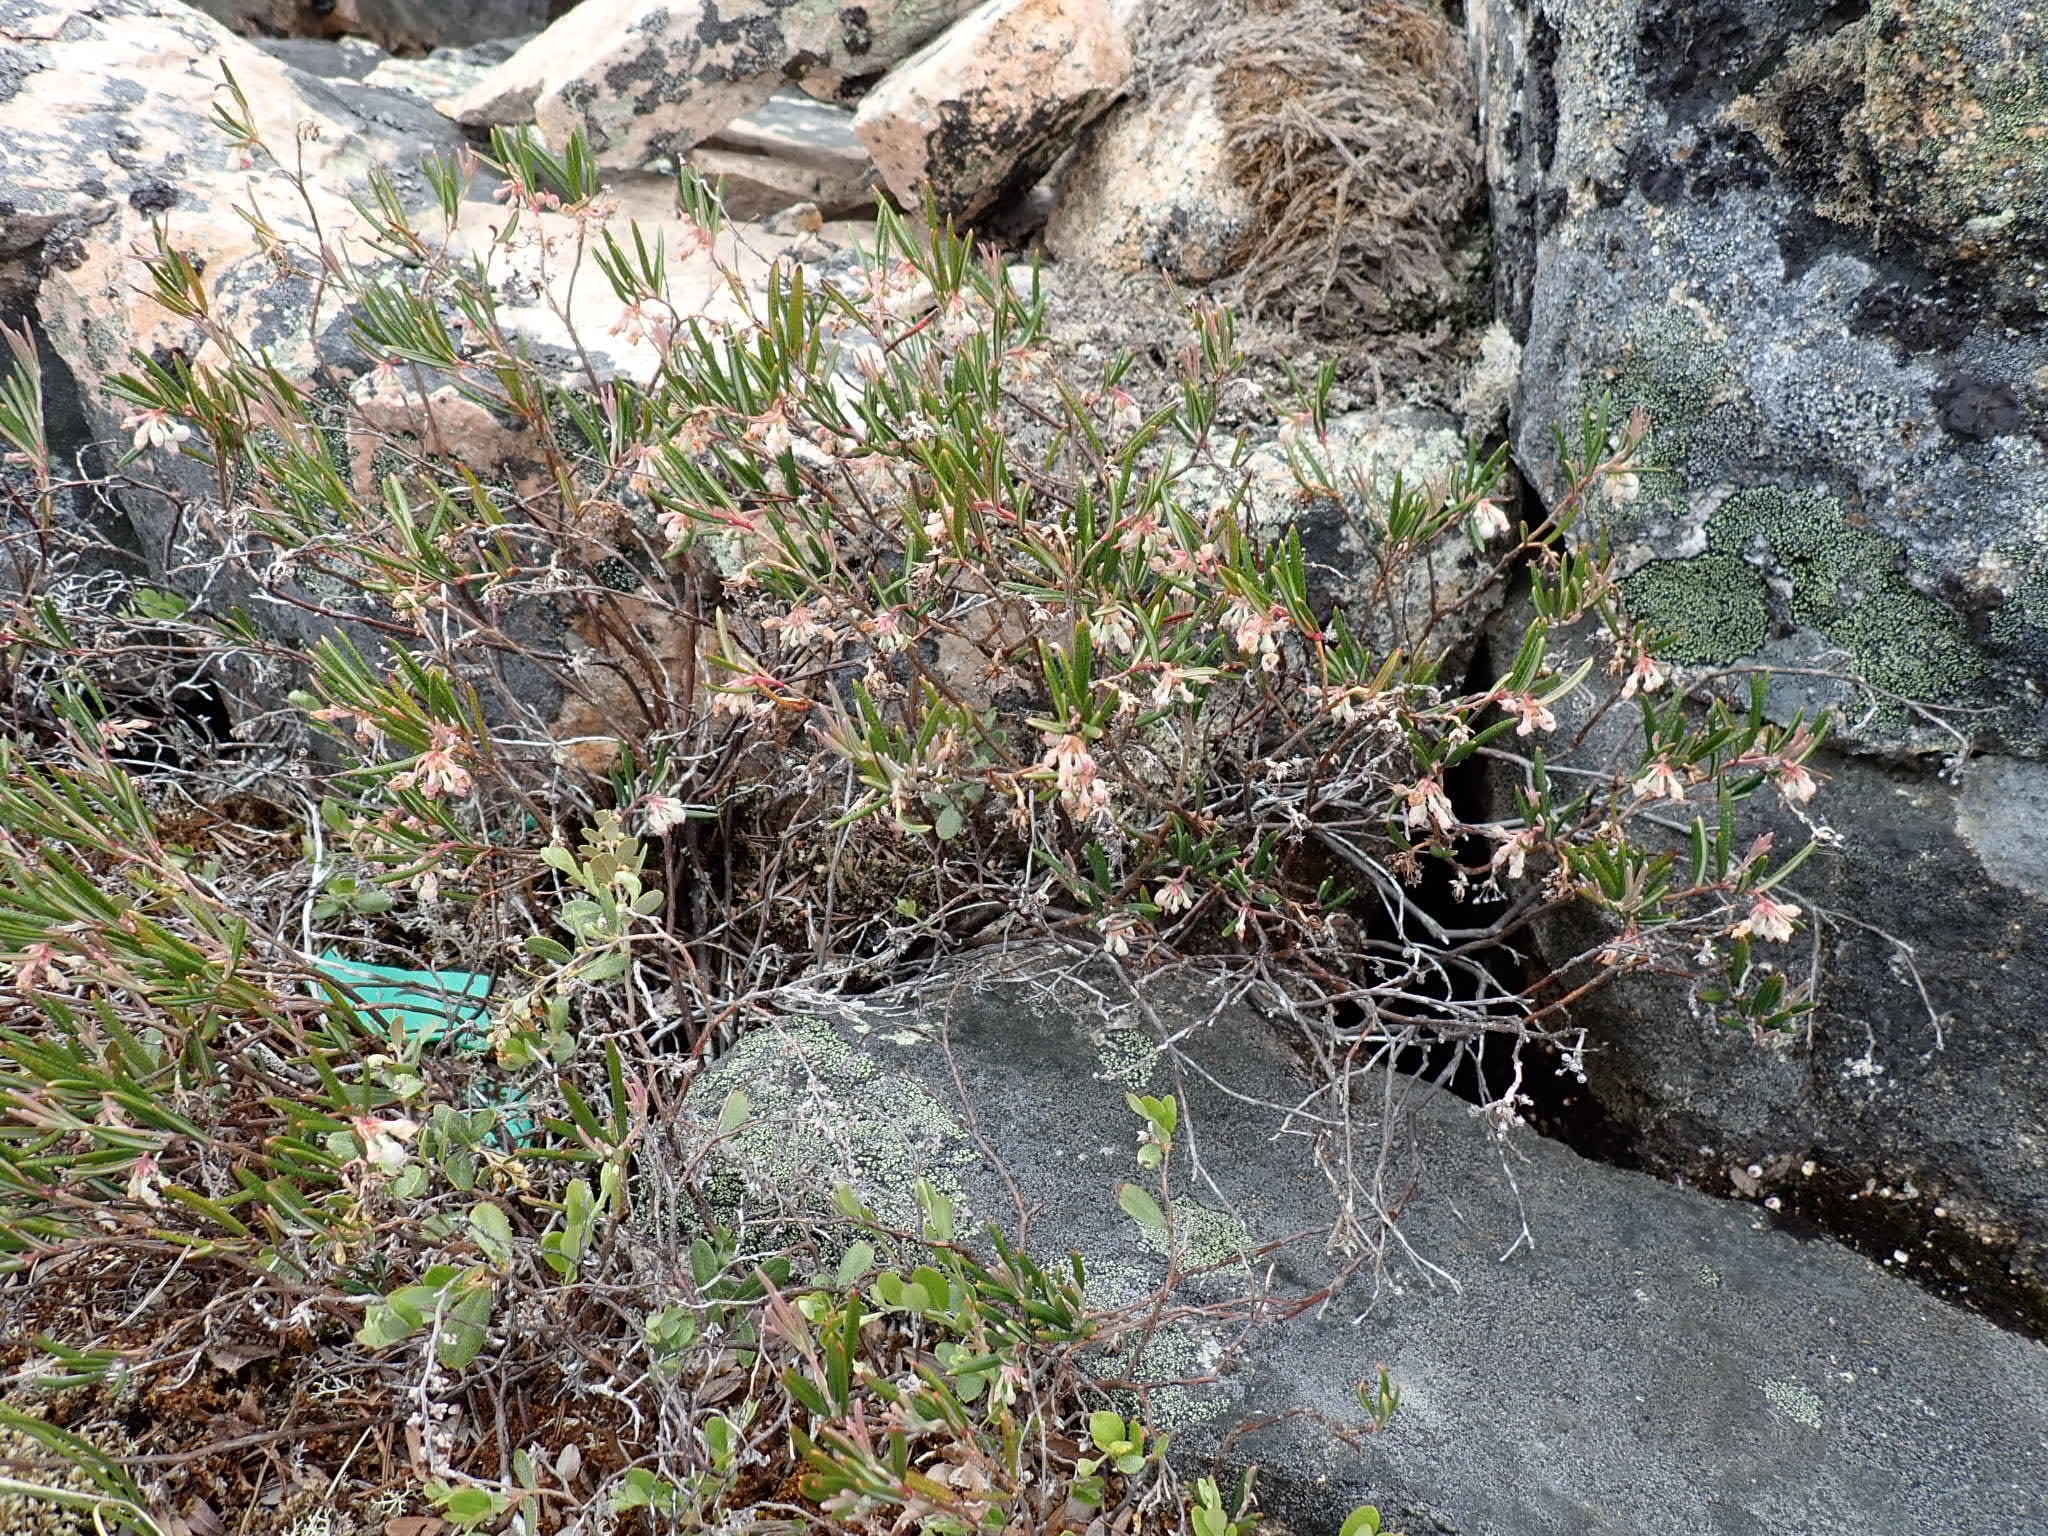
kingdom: Plantae
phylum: Tracheophyta
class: Magnoliopsida
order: Ericales
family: Ericaceae
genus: Andromeda
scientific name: Andromeda polifolia
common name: Bog-rosemary
